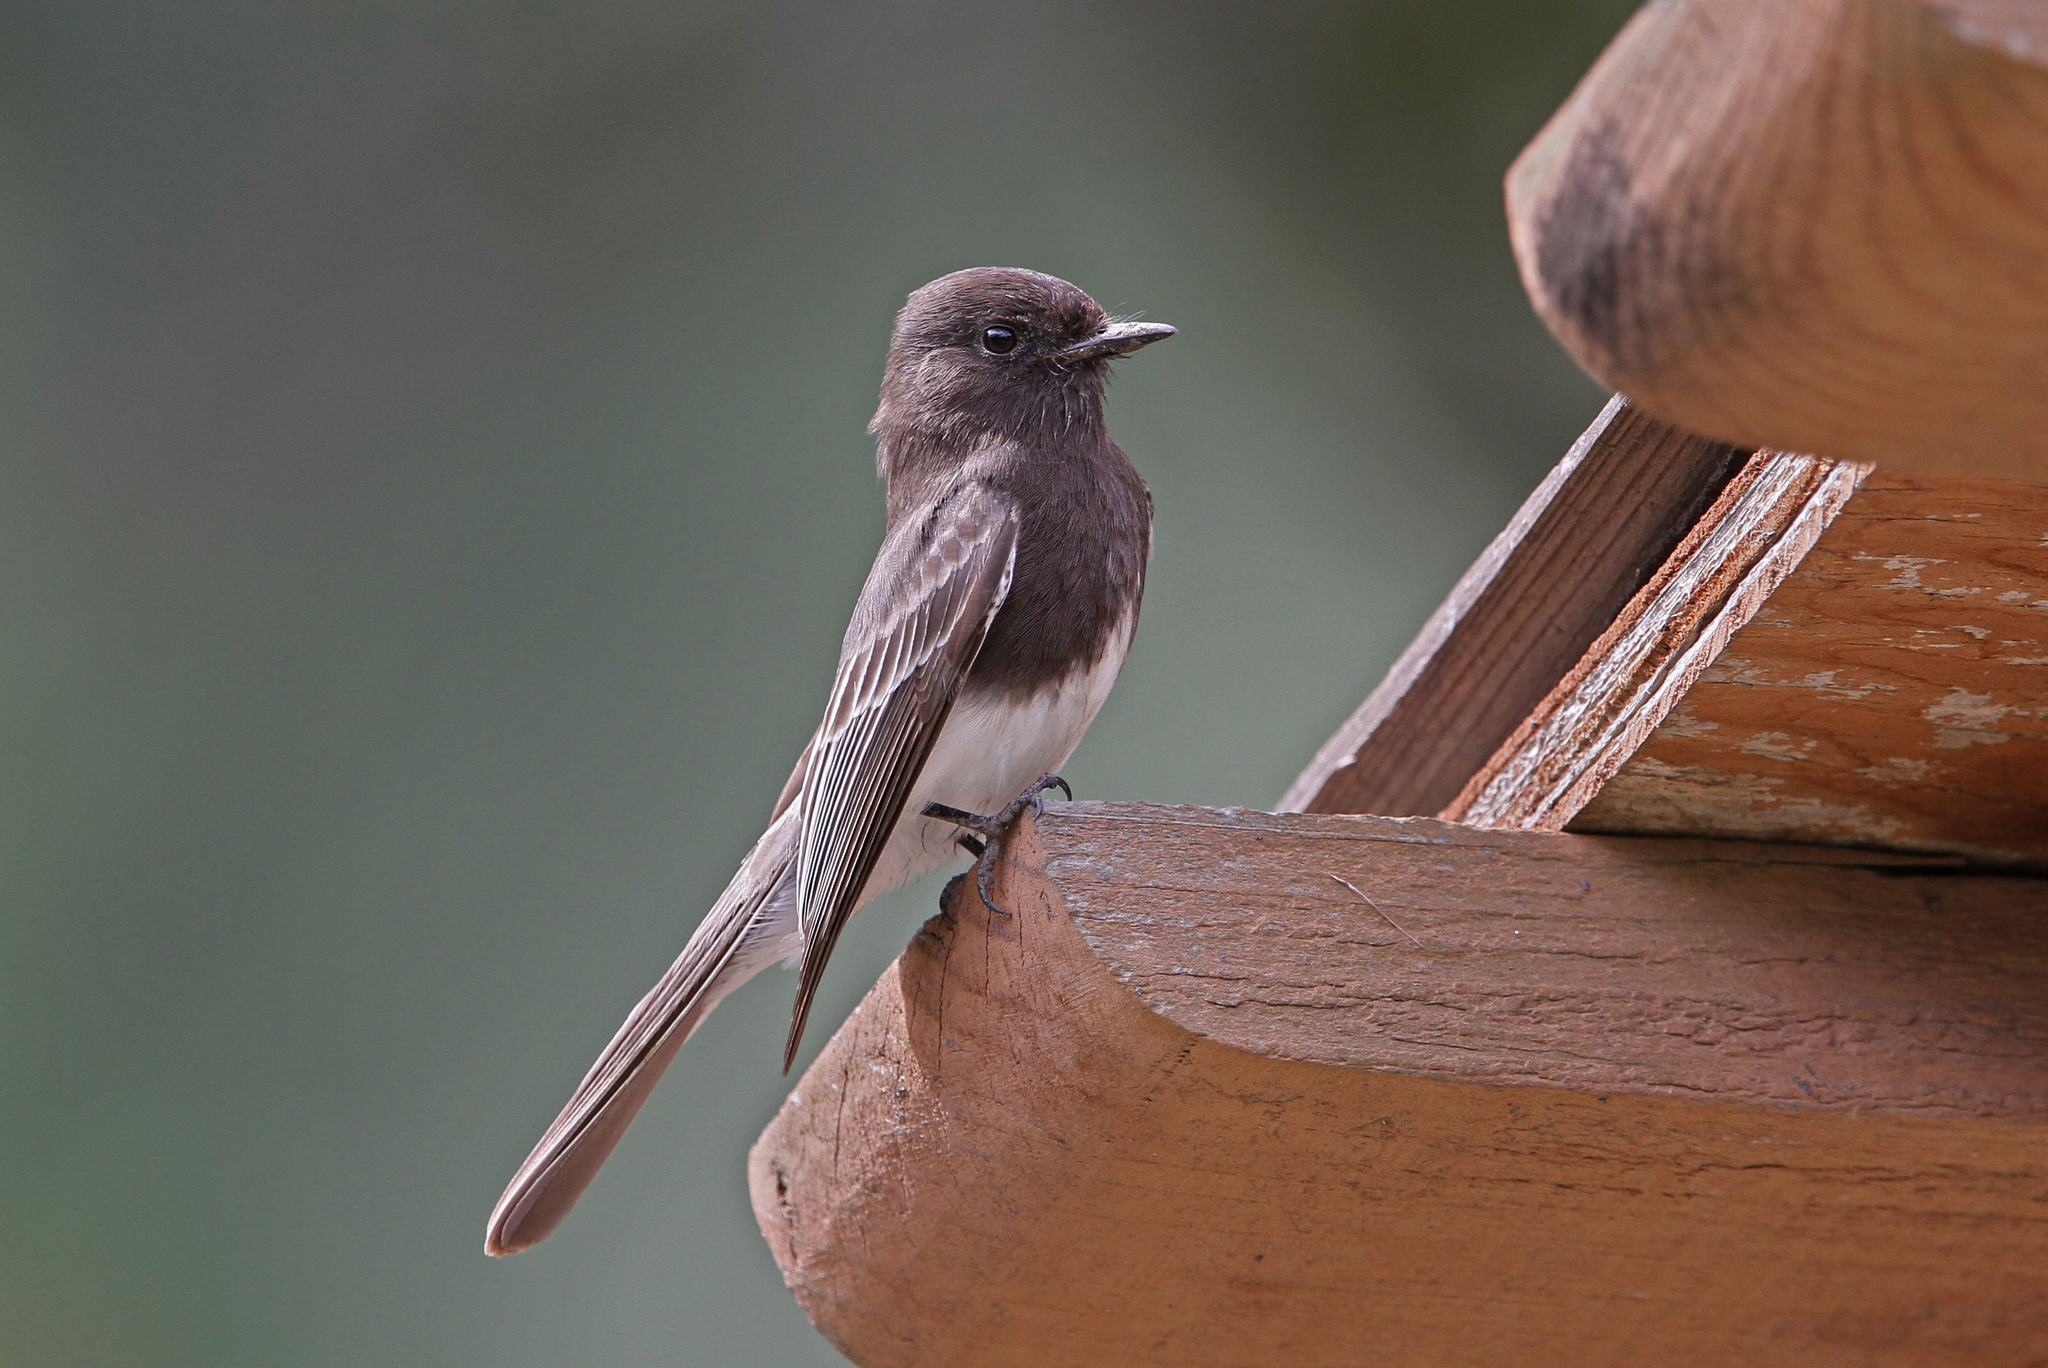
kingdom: Animalia
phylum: Chordata
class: Aves
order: Passeriformes
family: Tyrannidae
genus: Sayornis
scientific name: Sayornis nigricans
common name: Black phoebe
